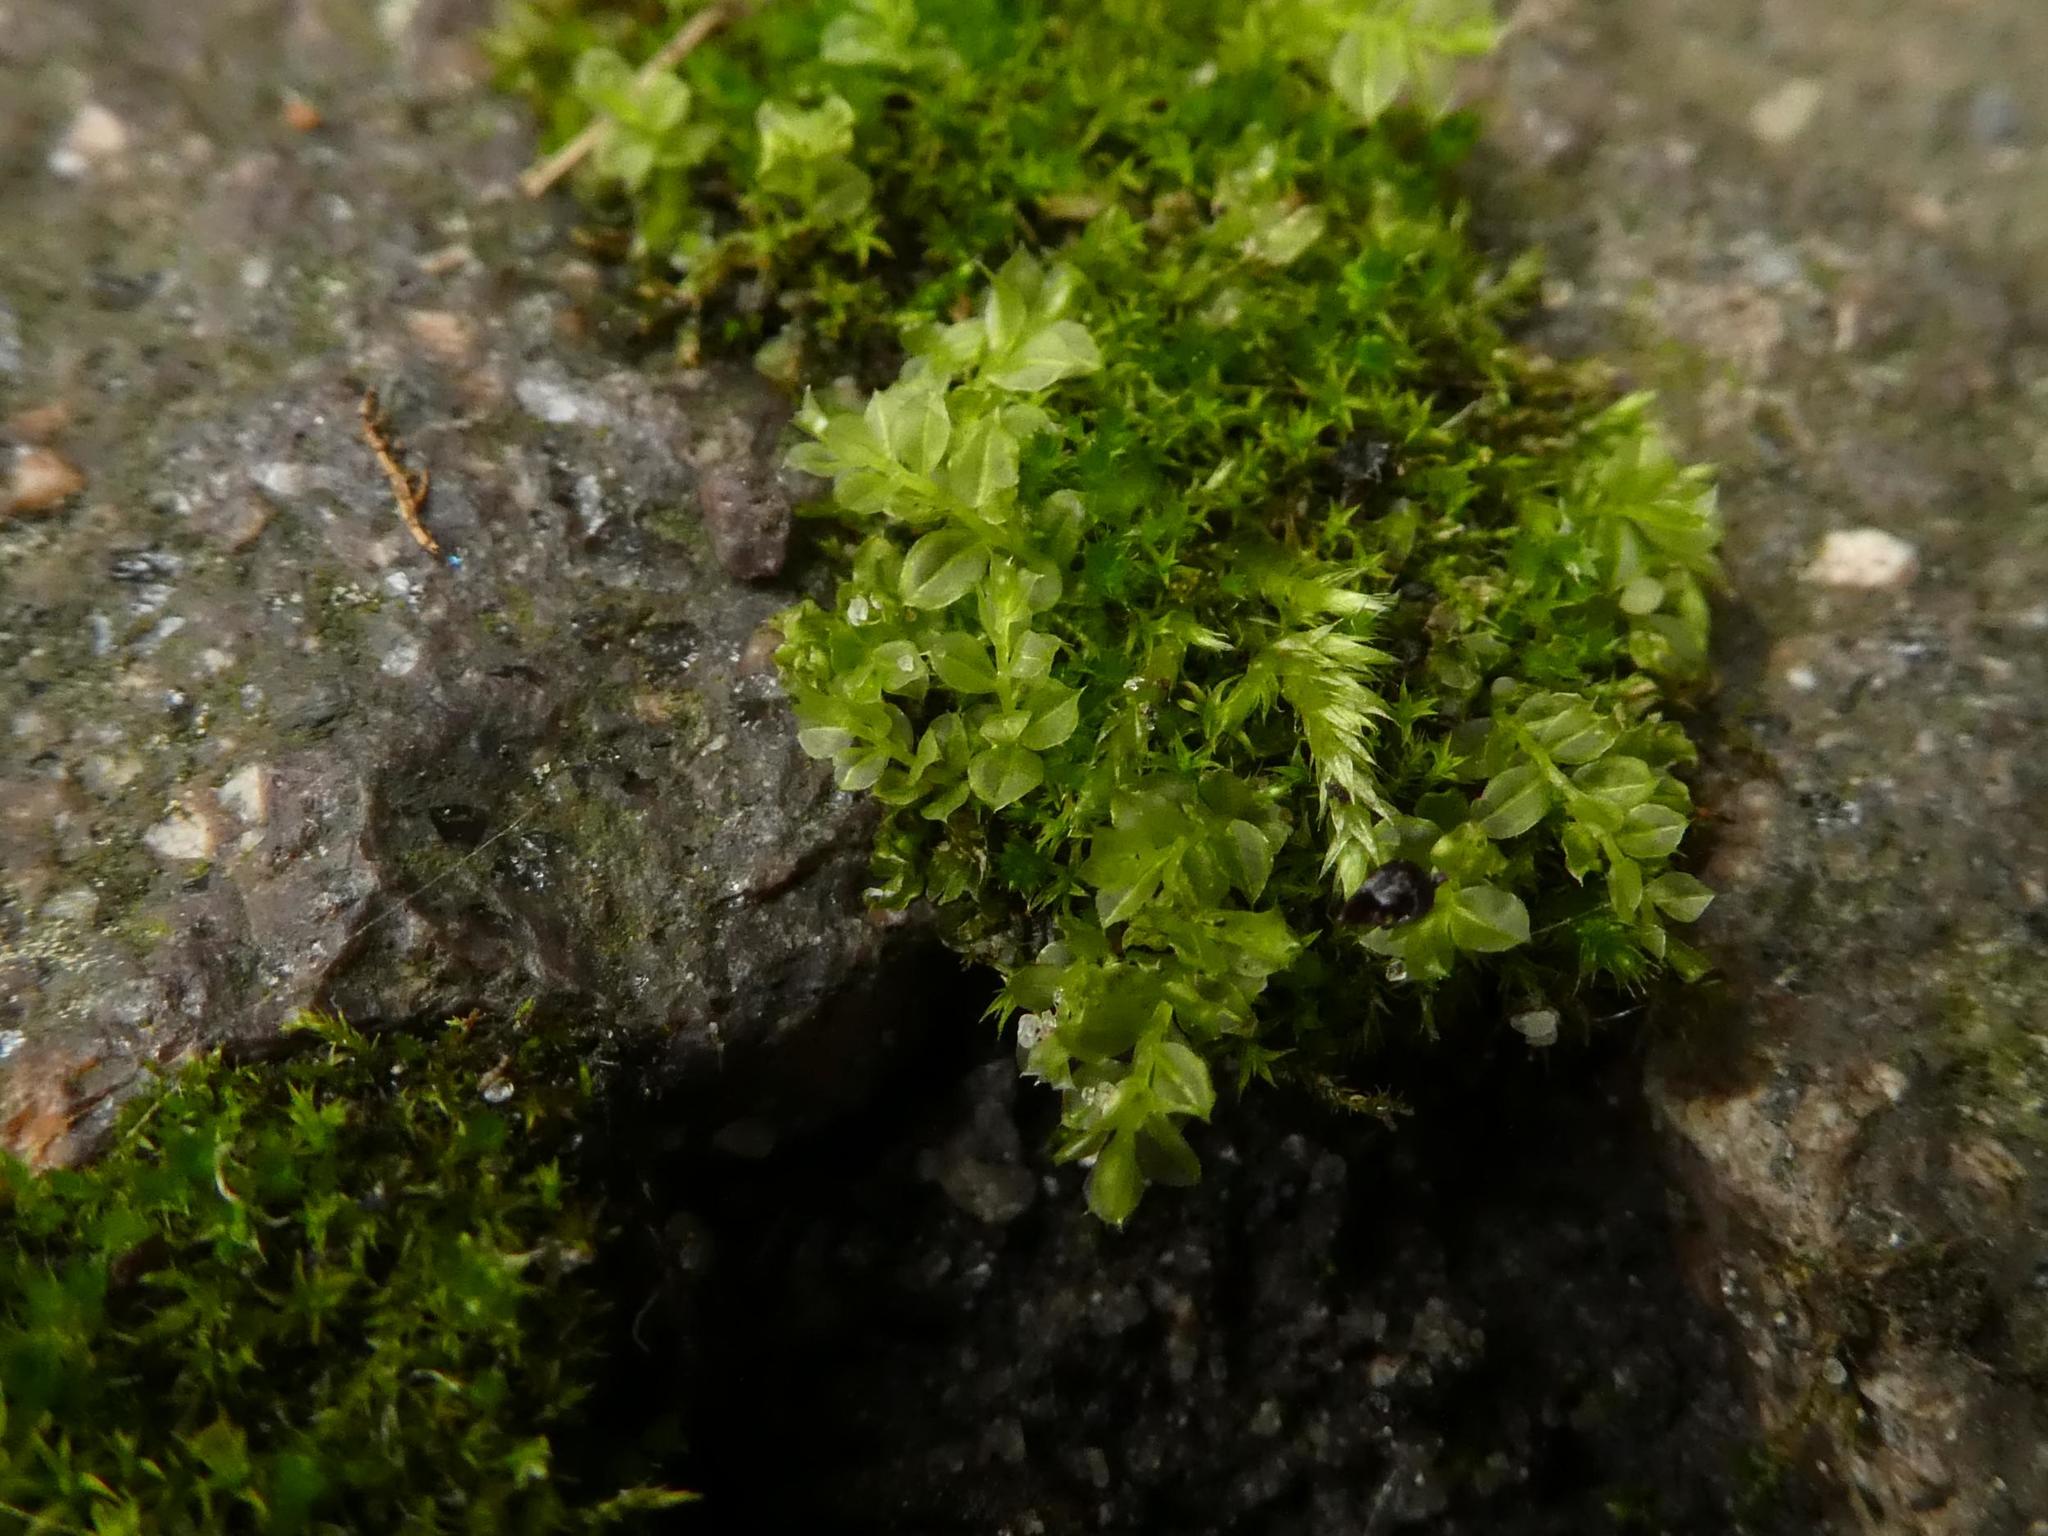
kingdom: Plantae
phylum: Bryophyta
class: Bryopsida
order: Bryales
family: Mniaceae
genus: Plagiomnium
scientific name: Plagiomnium cuspidatum
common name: Woodsy leafy moss
